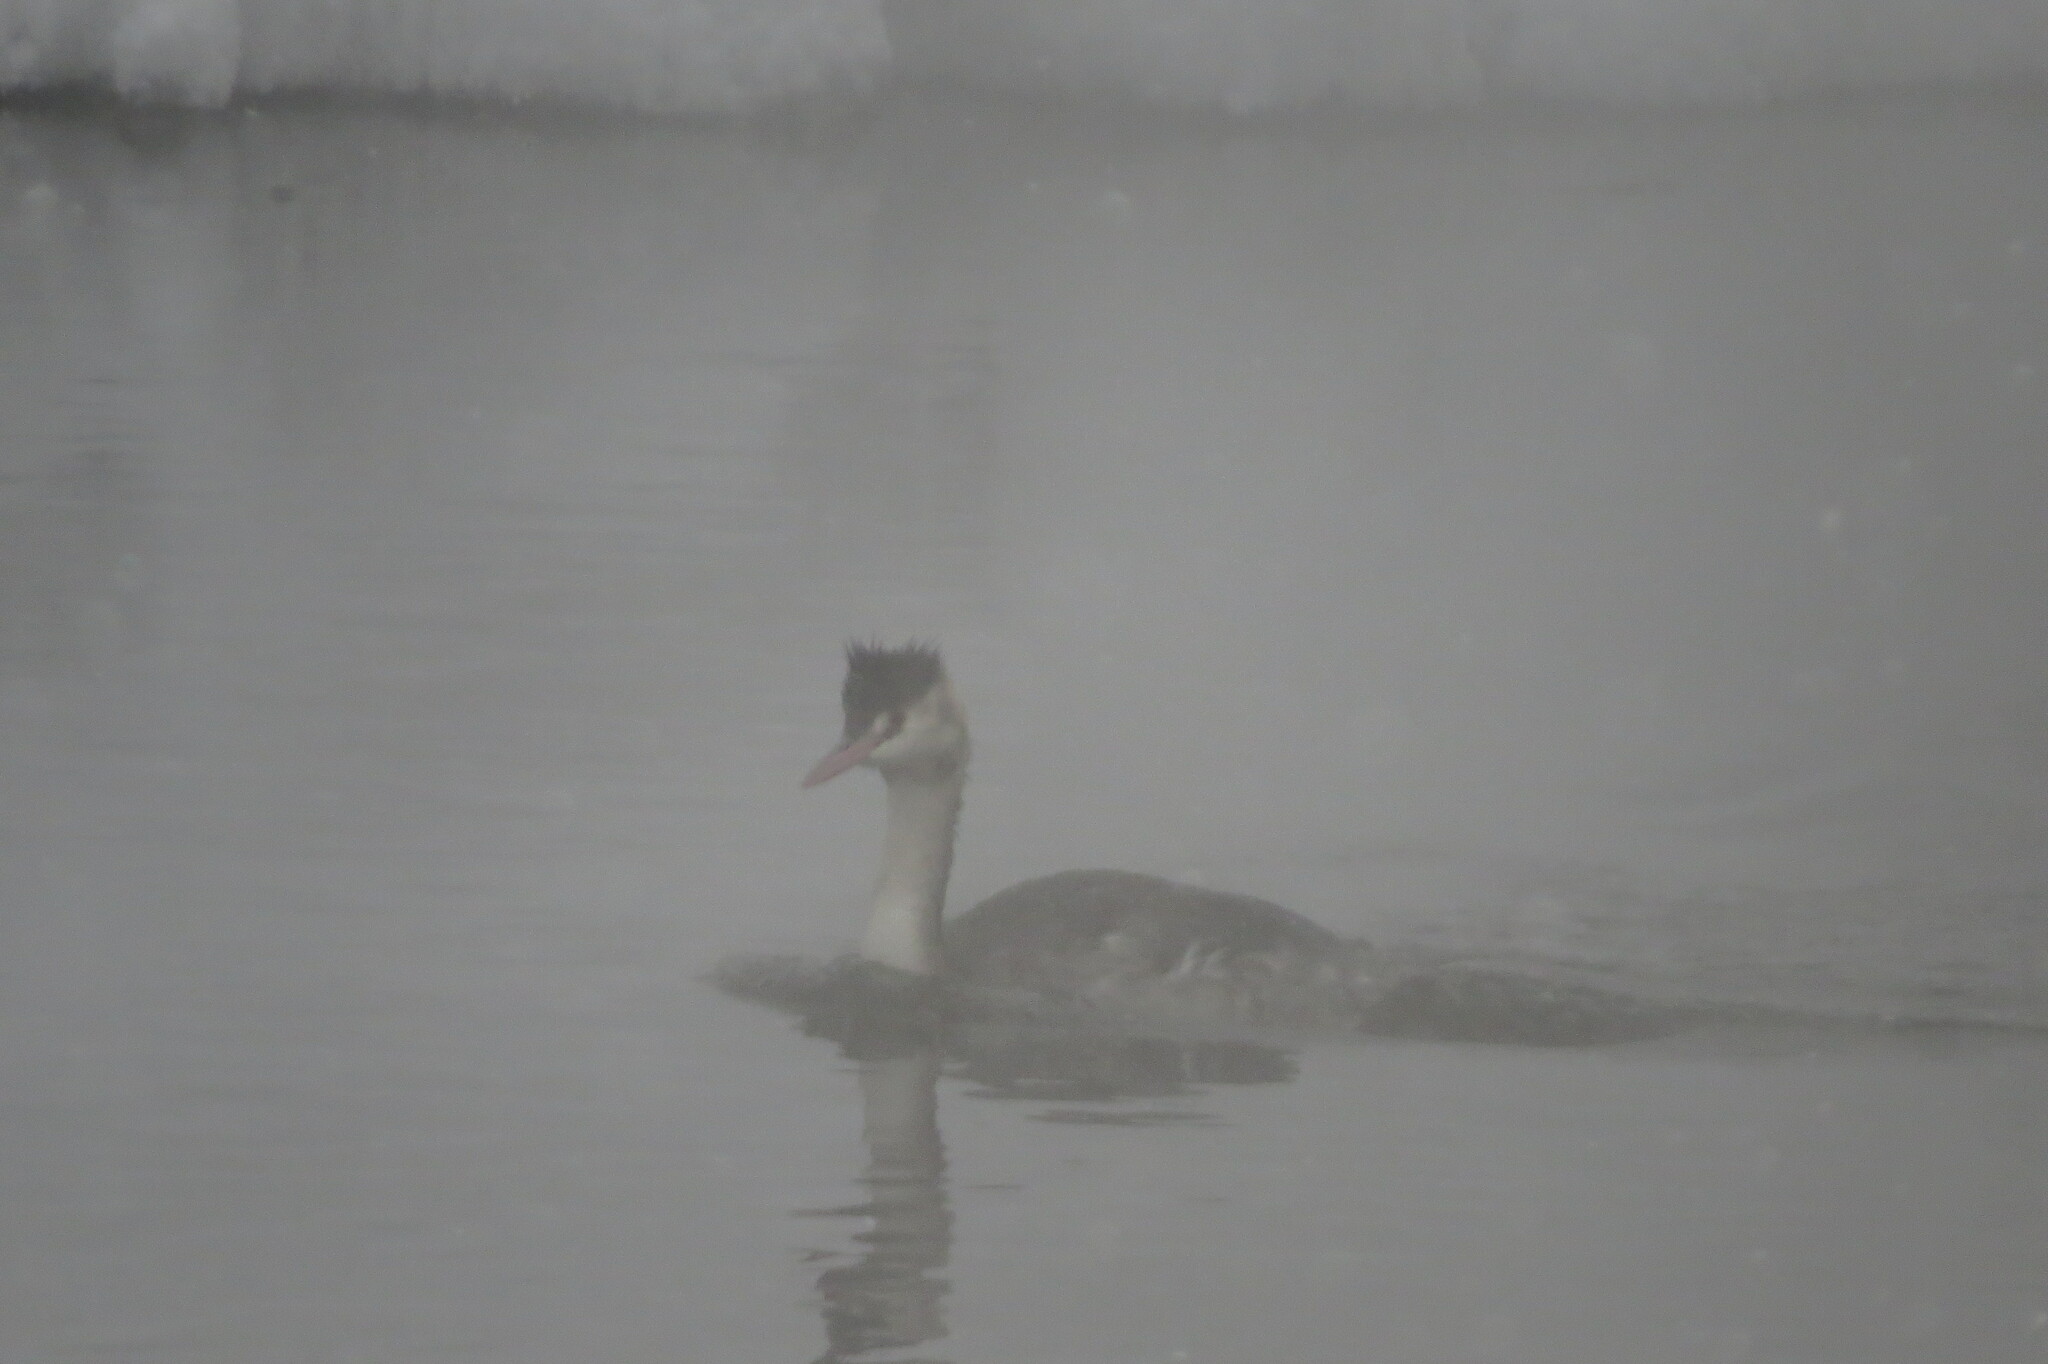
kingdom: Animalia
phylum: Chordata
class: Aves
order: Podicipediformes
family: Podicipedidae
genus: Podiceps
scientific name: Podiceps cristatus
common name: Great crested grebe
